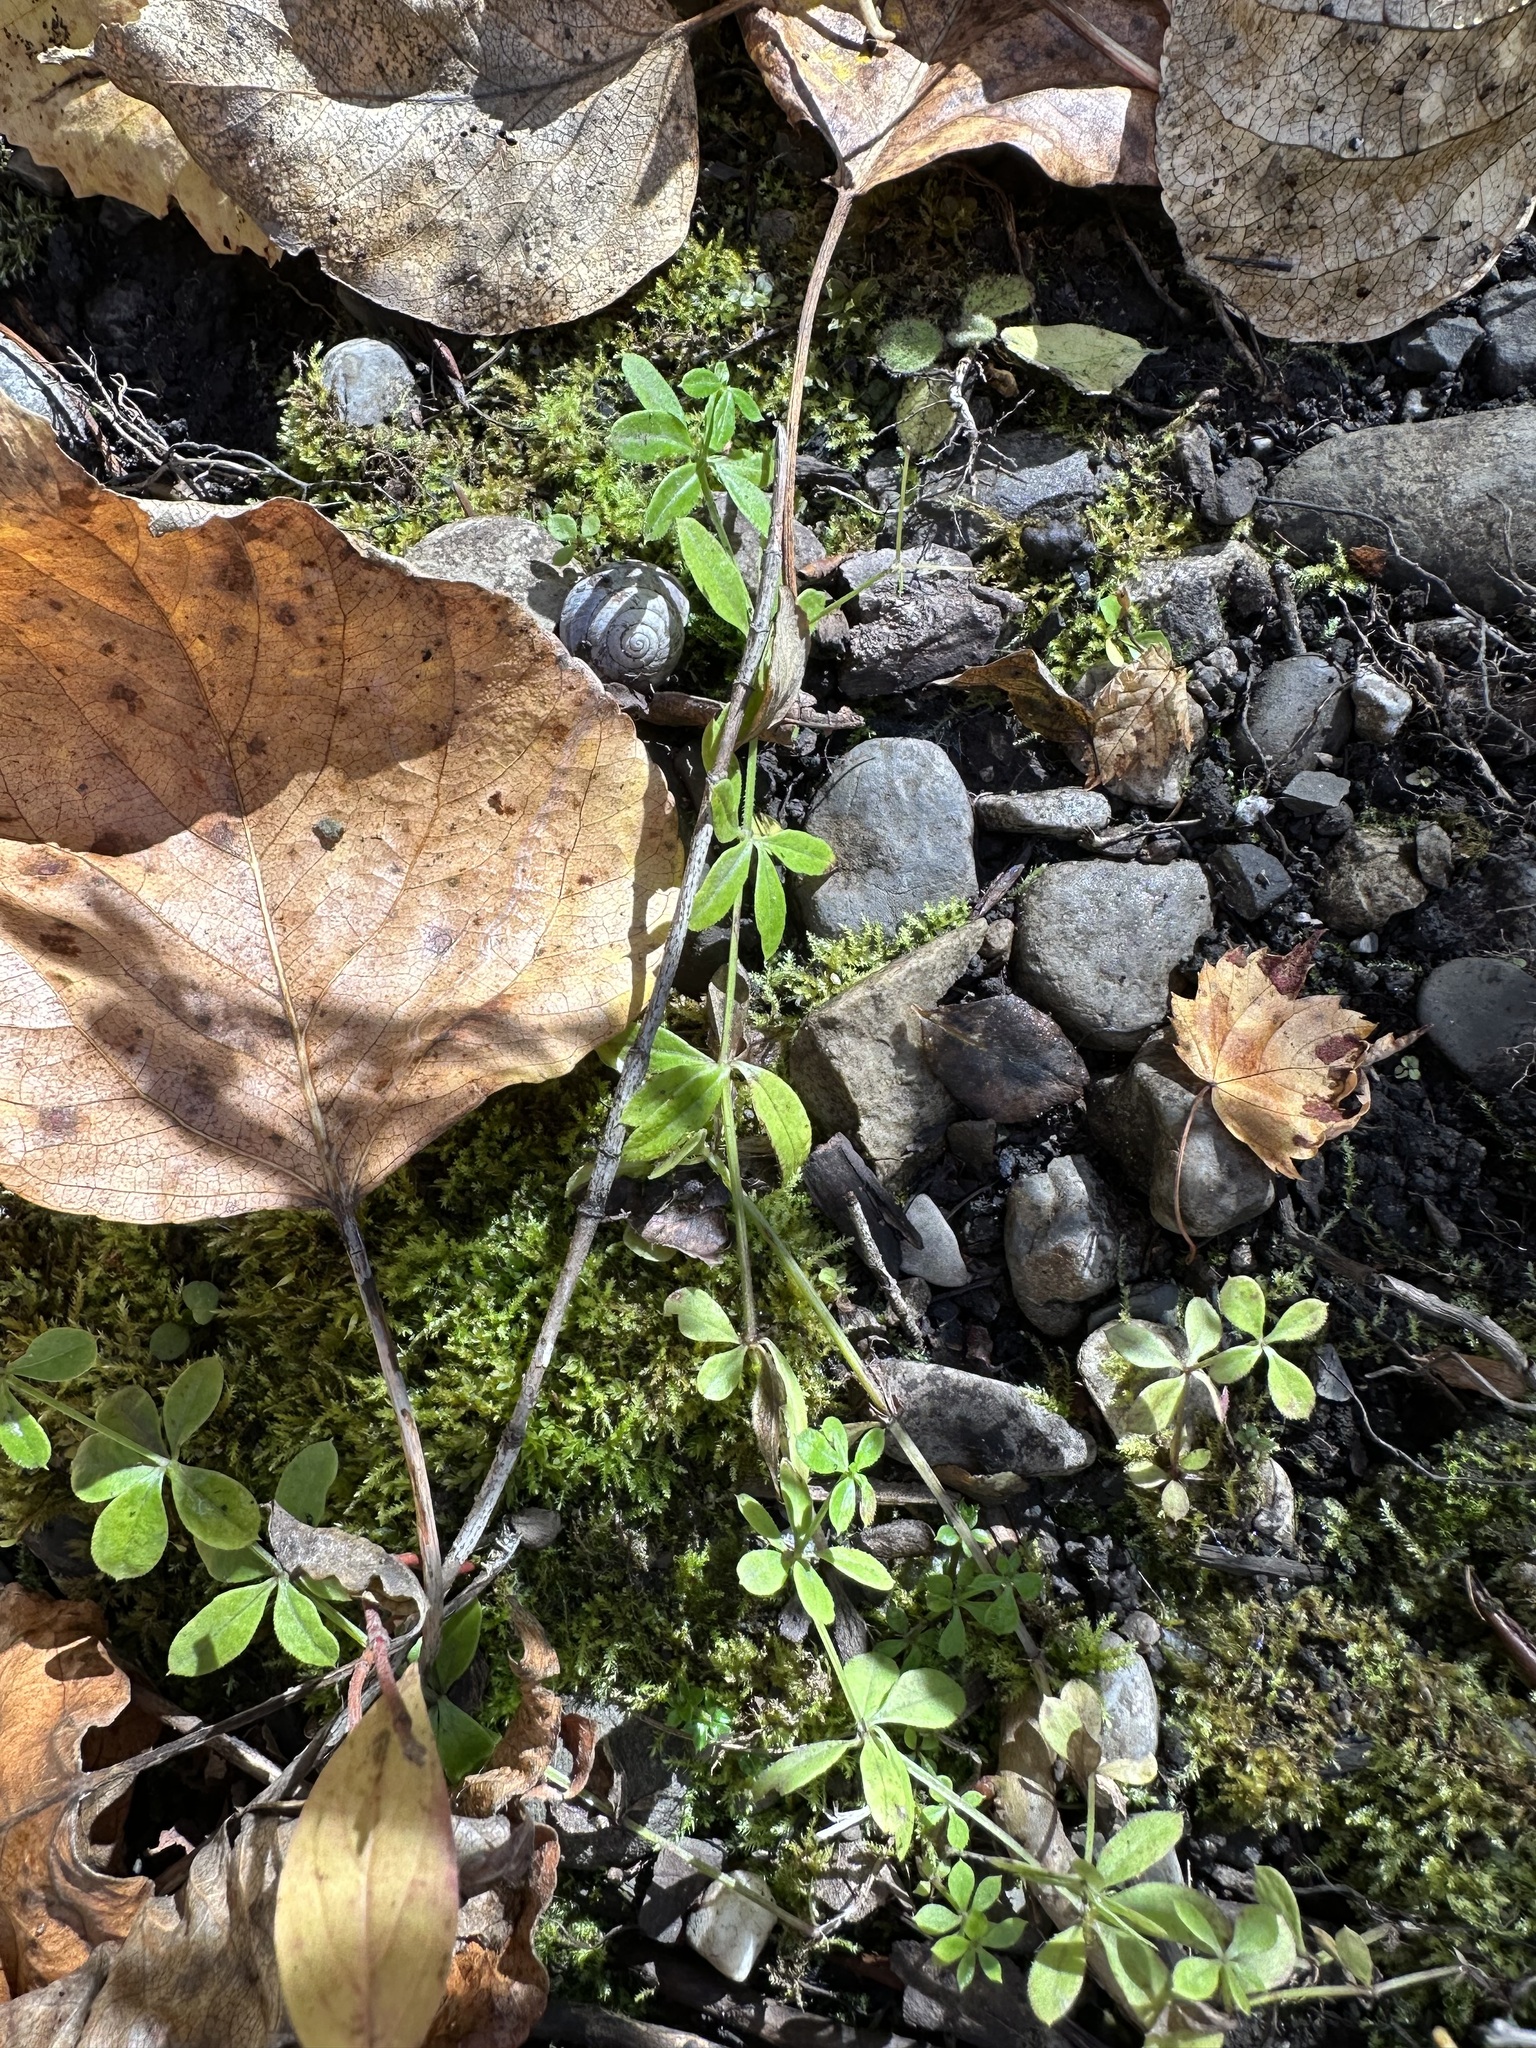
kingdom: Plantae
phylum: Tracheophyta
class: Magnoliopsida
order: Gentianales
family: Rubiaceae
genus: Galium
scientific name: Galium triflorum
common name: Fragrant bedstraw
